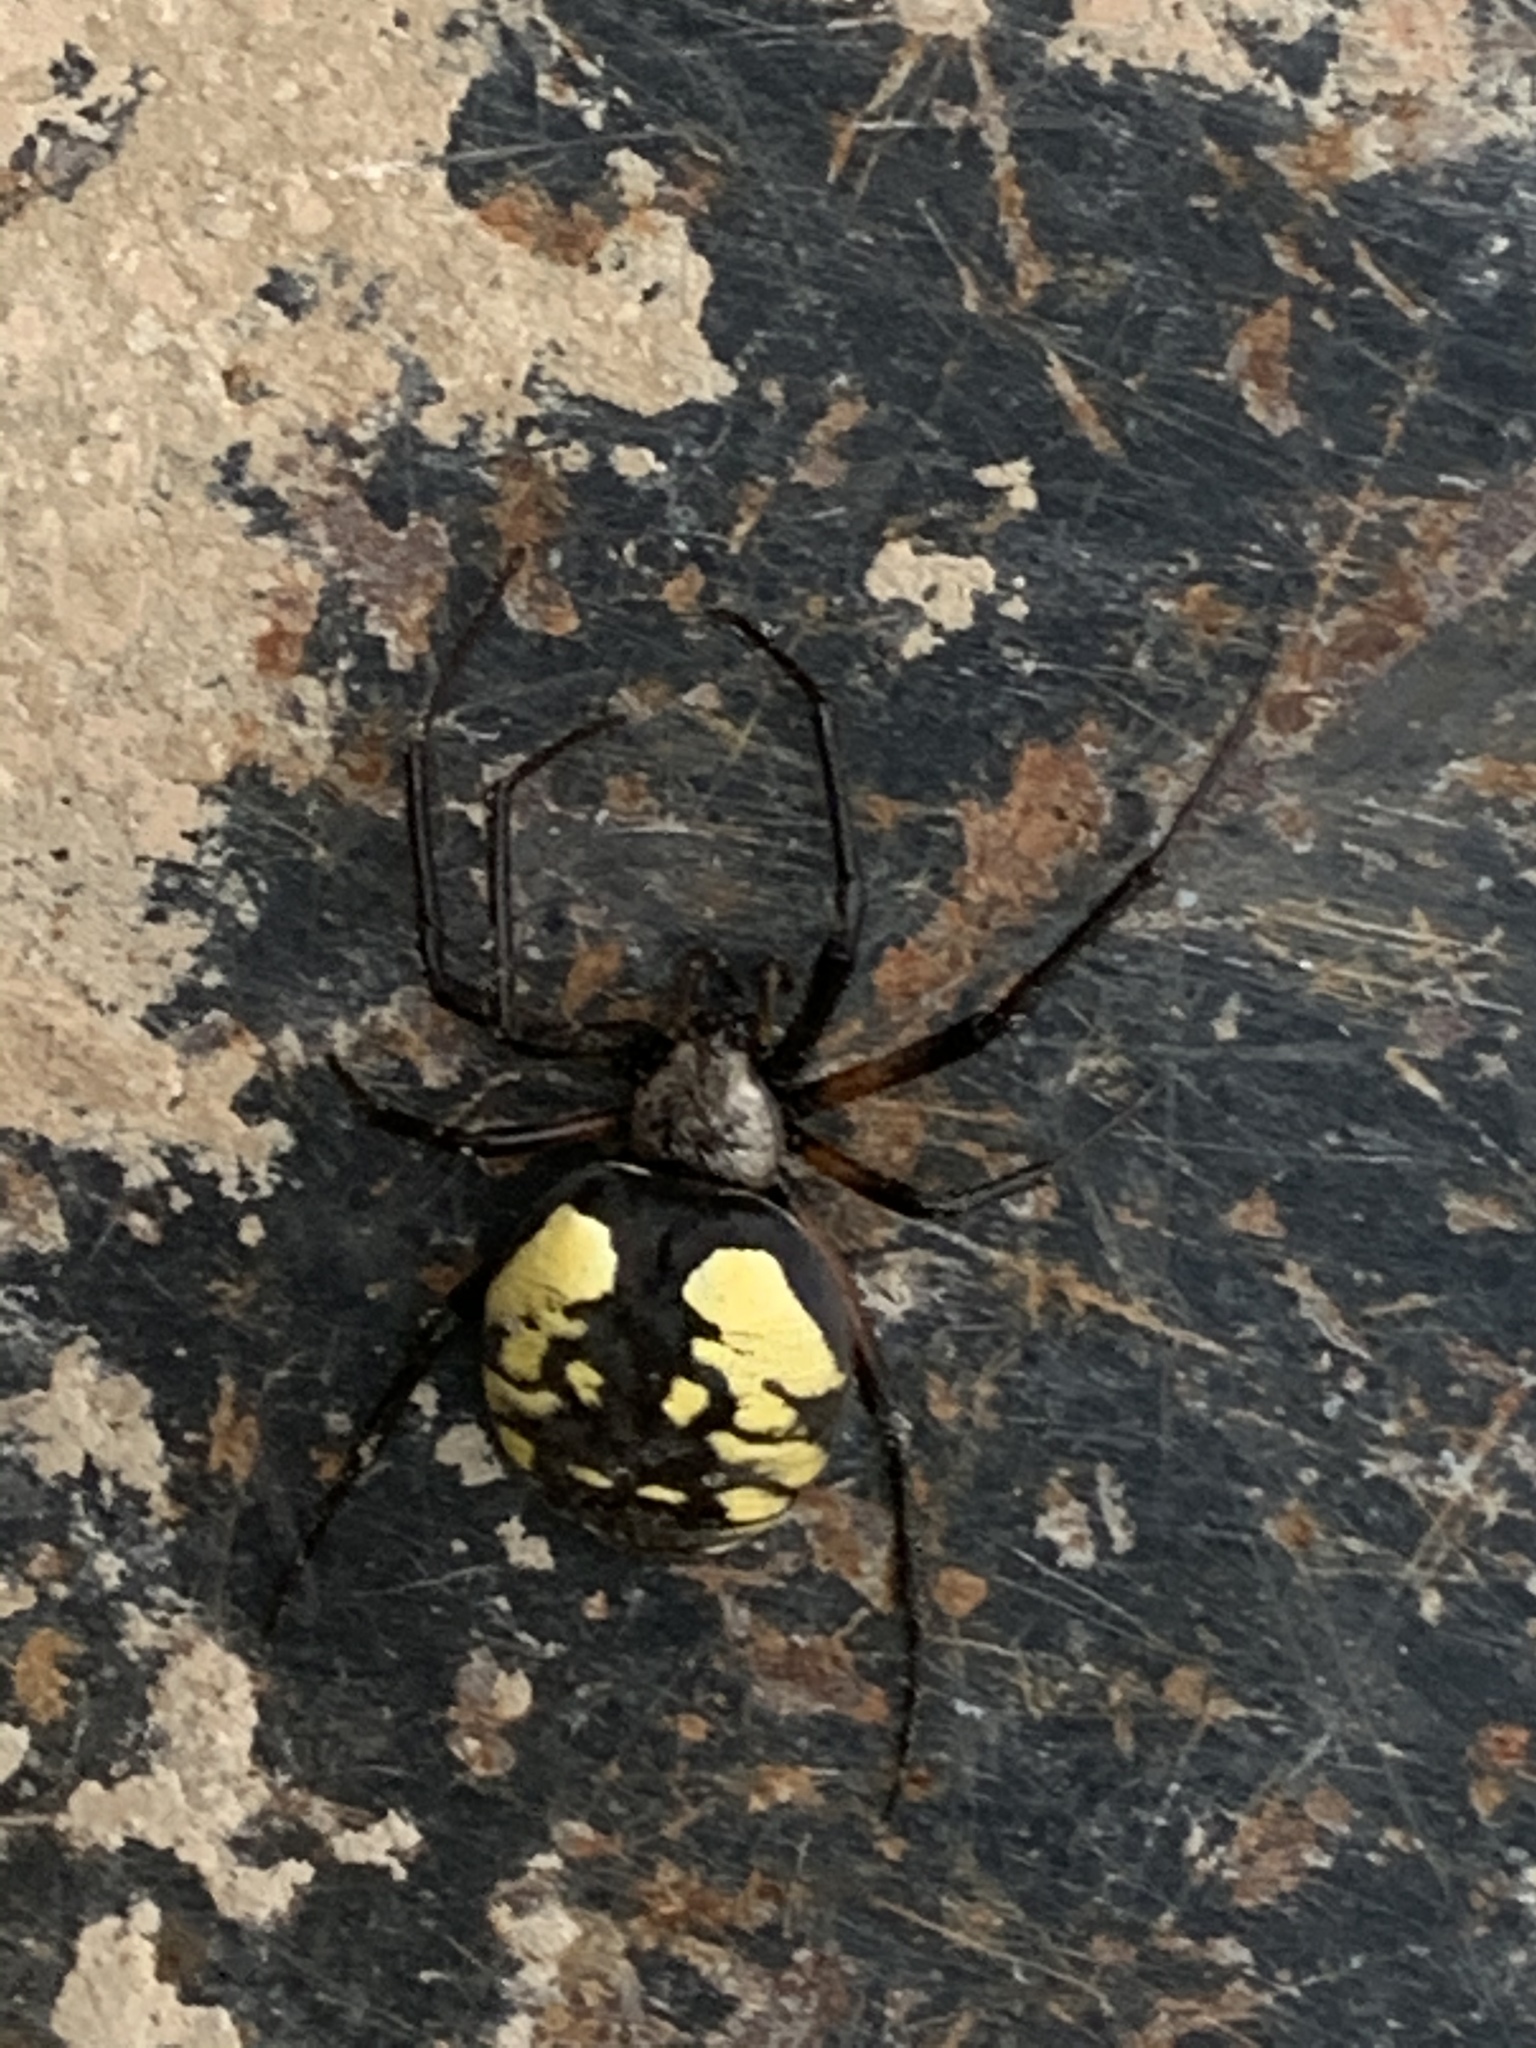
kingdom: Animalia
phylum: Arthropoda
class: Arachnida
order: Araneae
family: Araneidae
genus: Argiope
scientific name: Argiope aurantia
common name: Orb weavers
